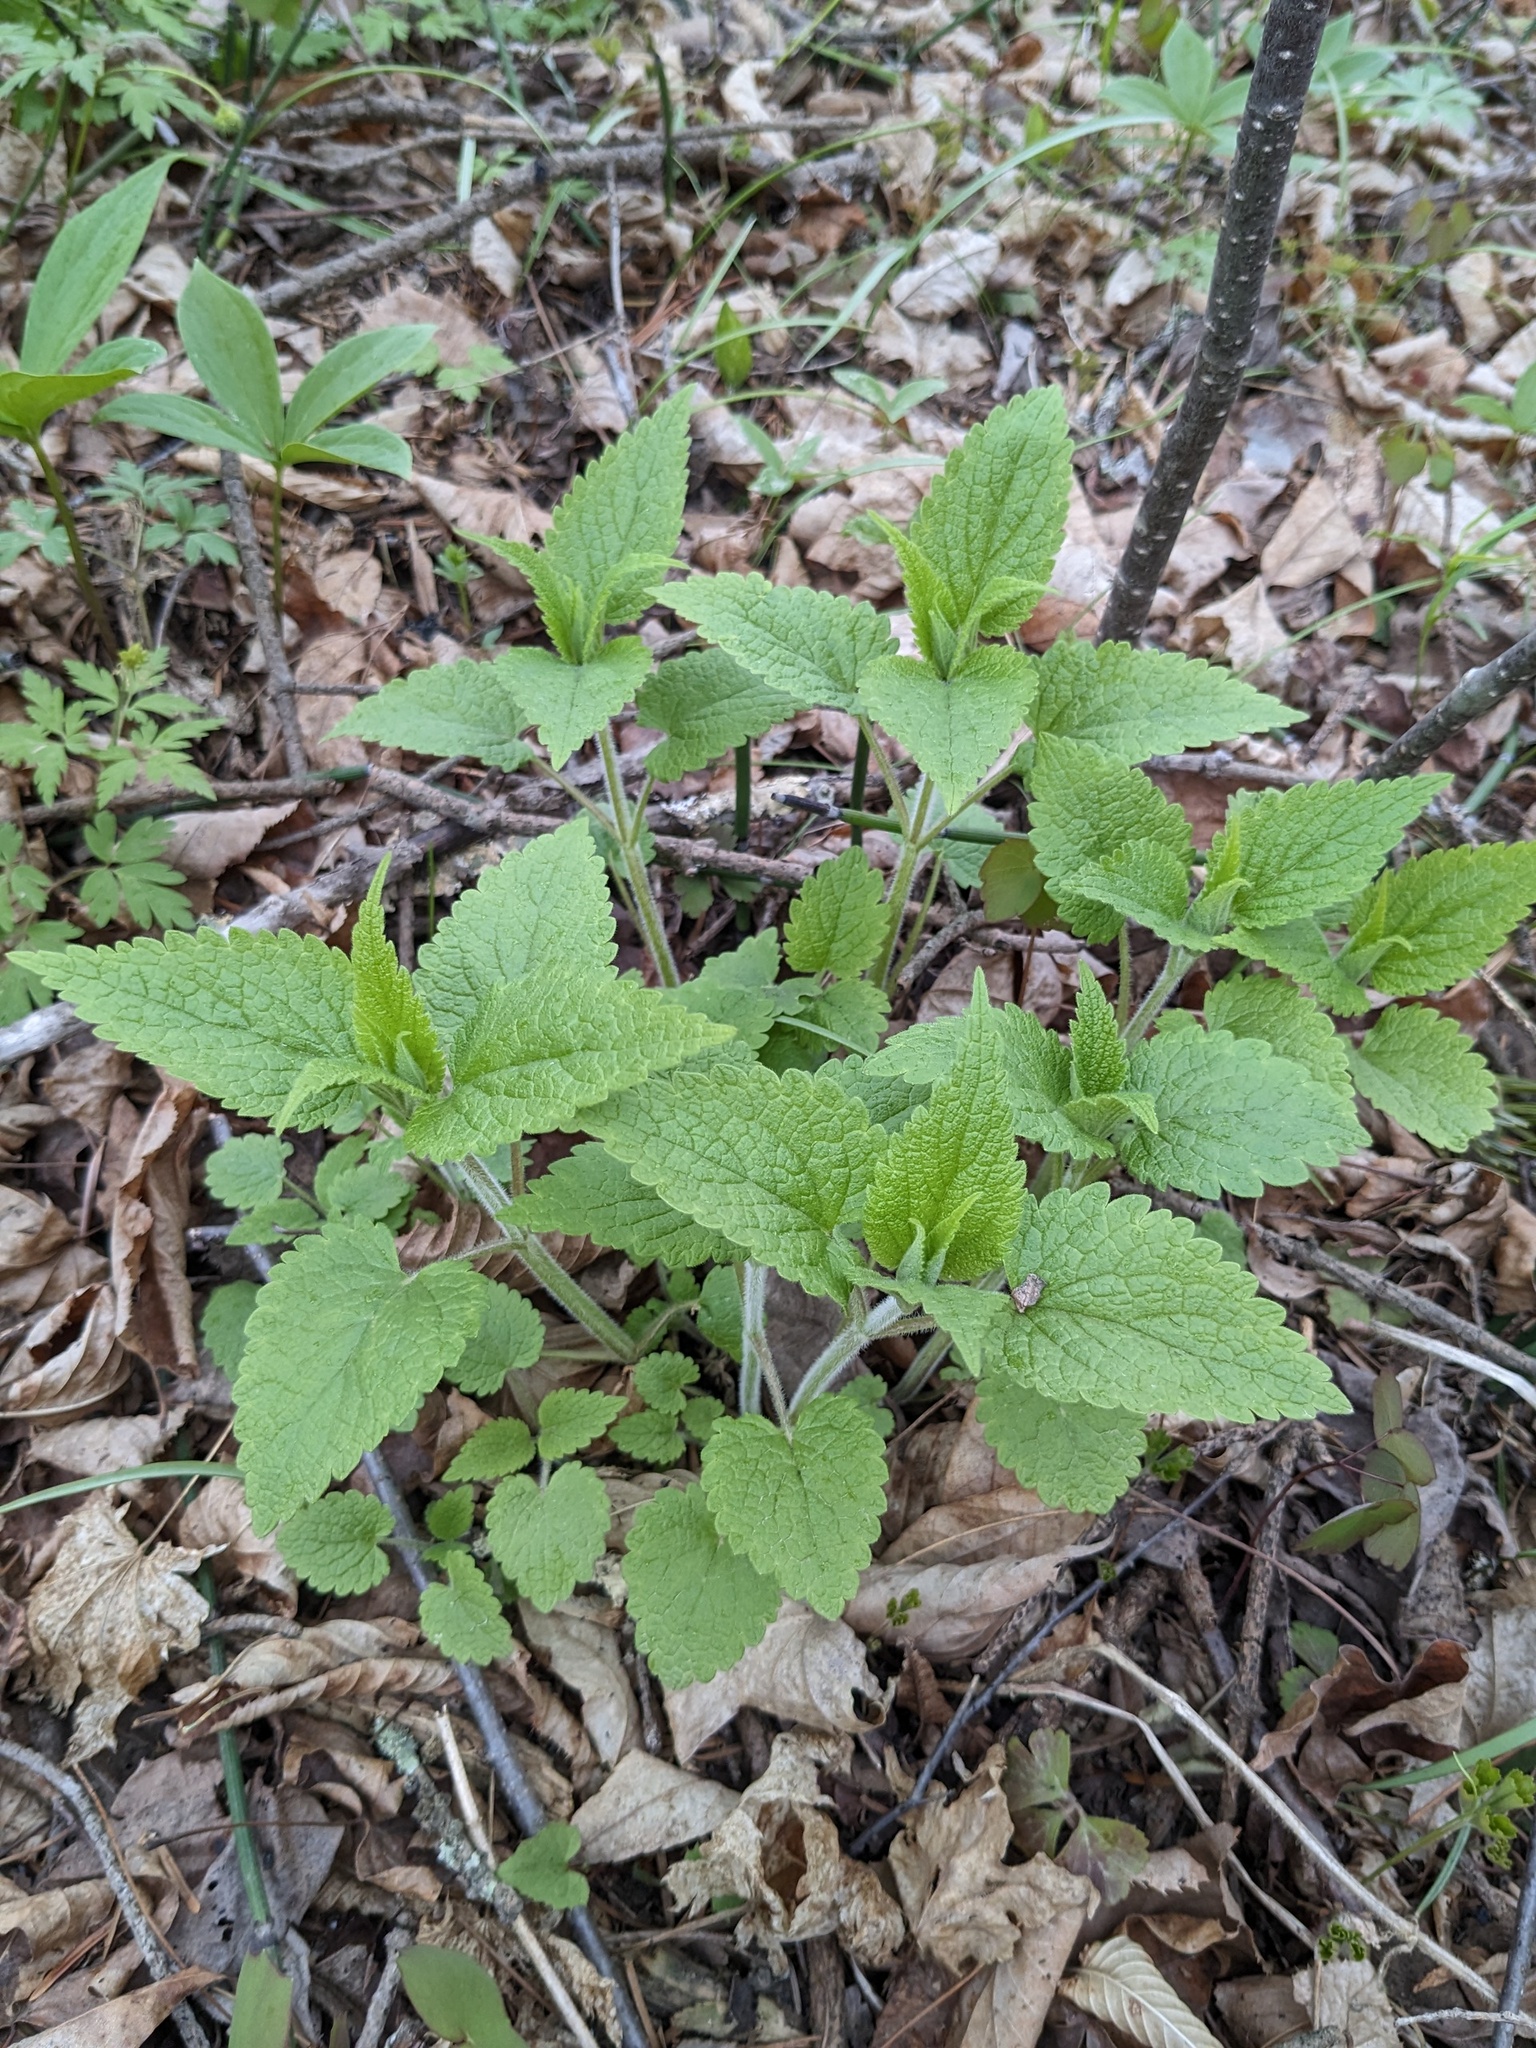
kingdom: Plantae
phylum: Tracheophyta
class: Magnoliopsida
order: Lamiales
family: Lamiaceae
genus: Lamium
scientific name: Lamium album
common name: White dead-nettle
